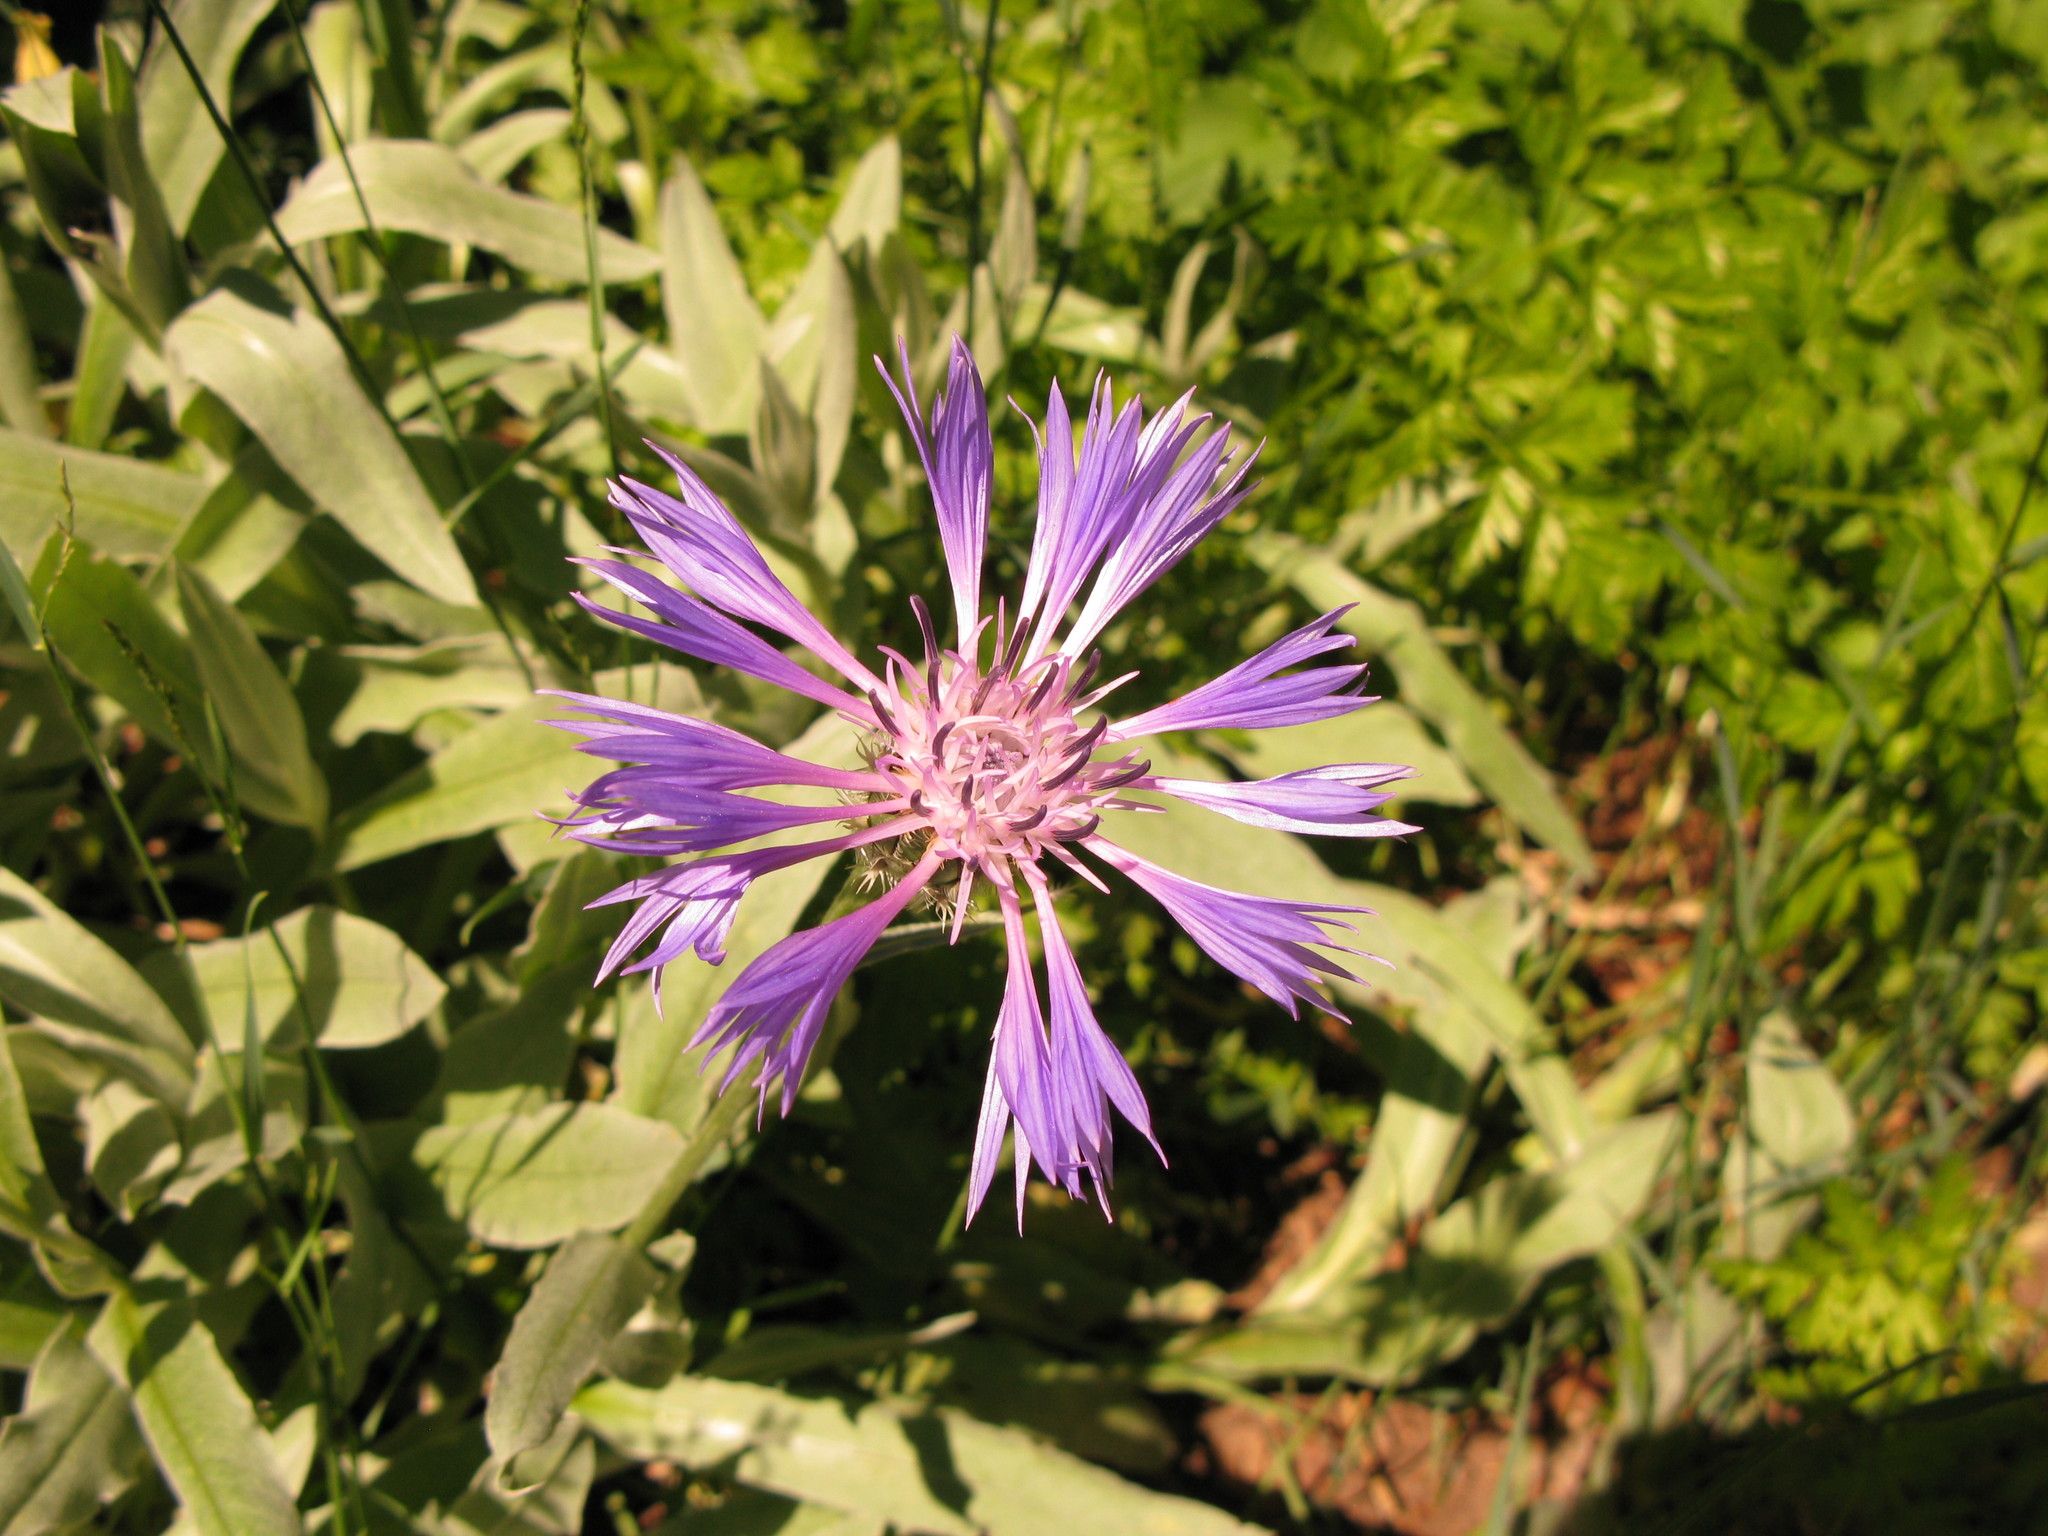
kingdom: Plantae
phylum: Tracheophyta
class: Magnoliopsida
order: Asterales
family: Asteraceae
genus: Centaurea
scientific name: Centaurea fuscomarginata
